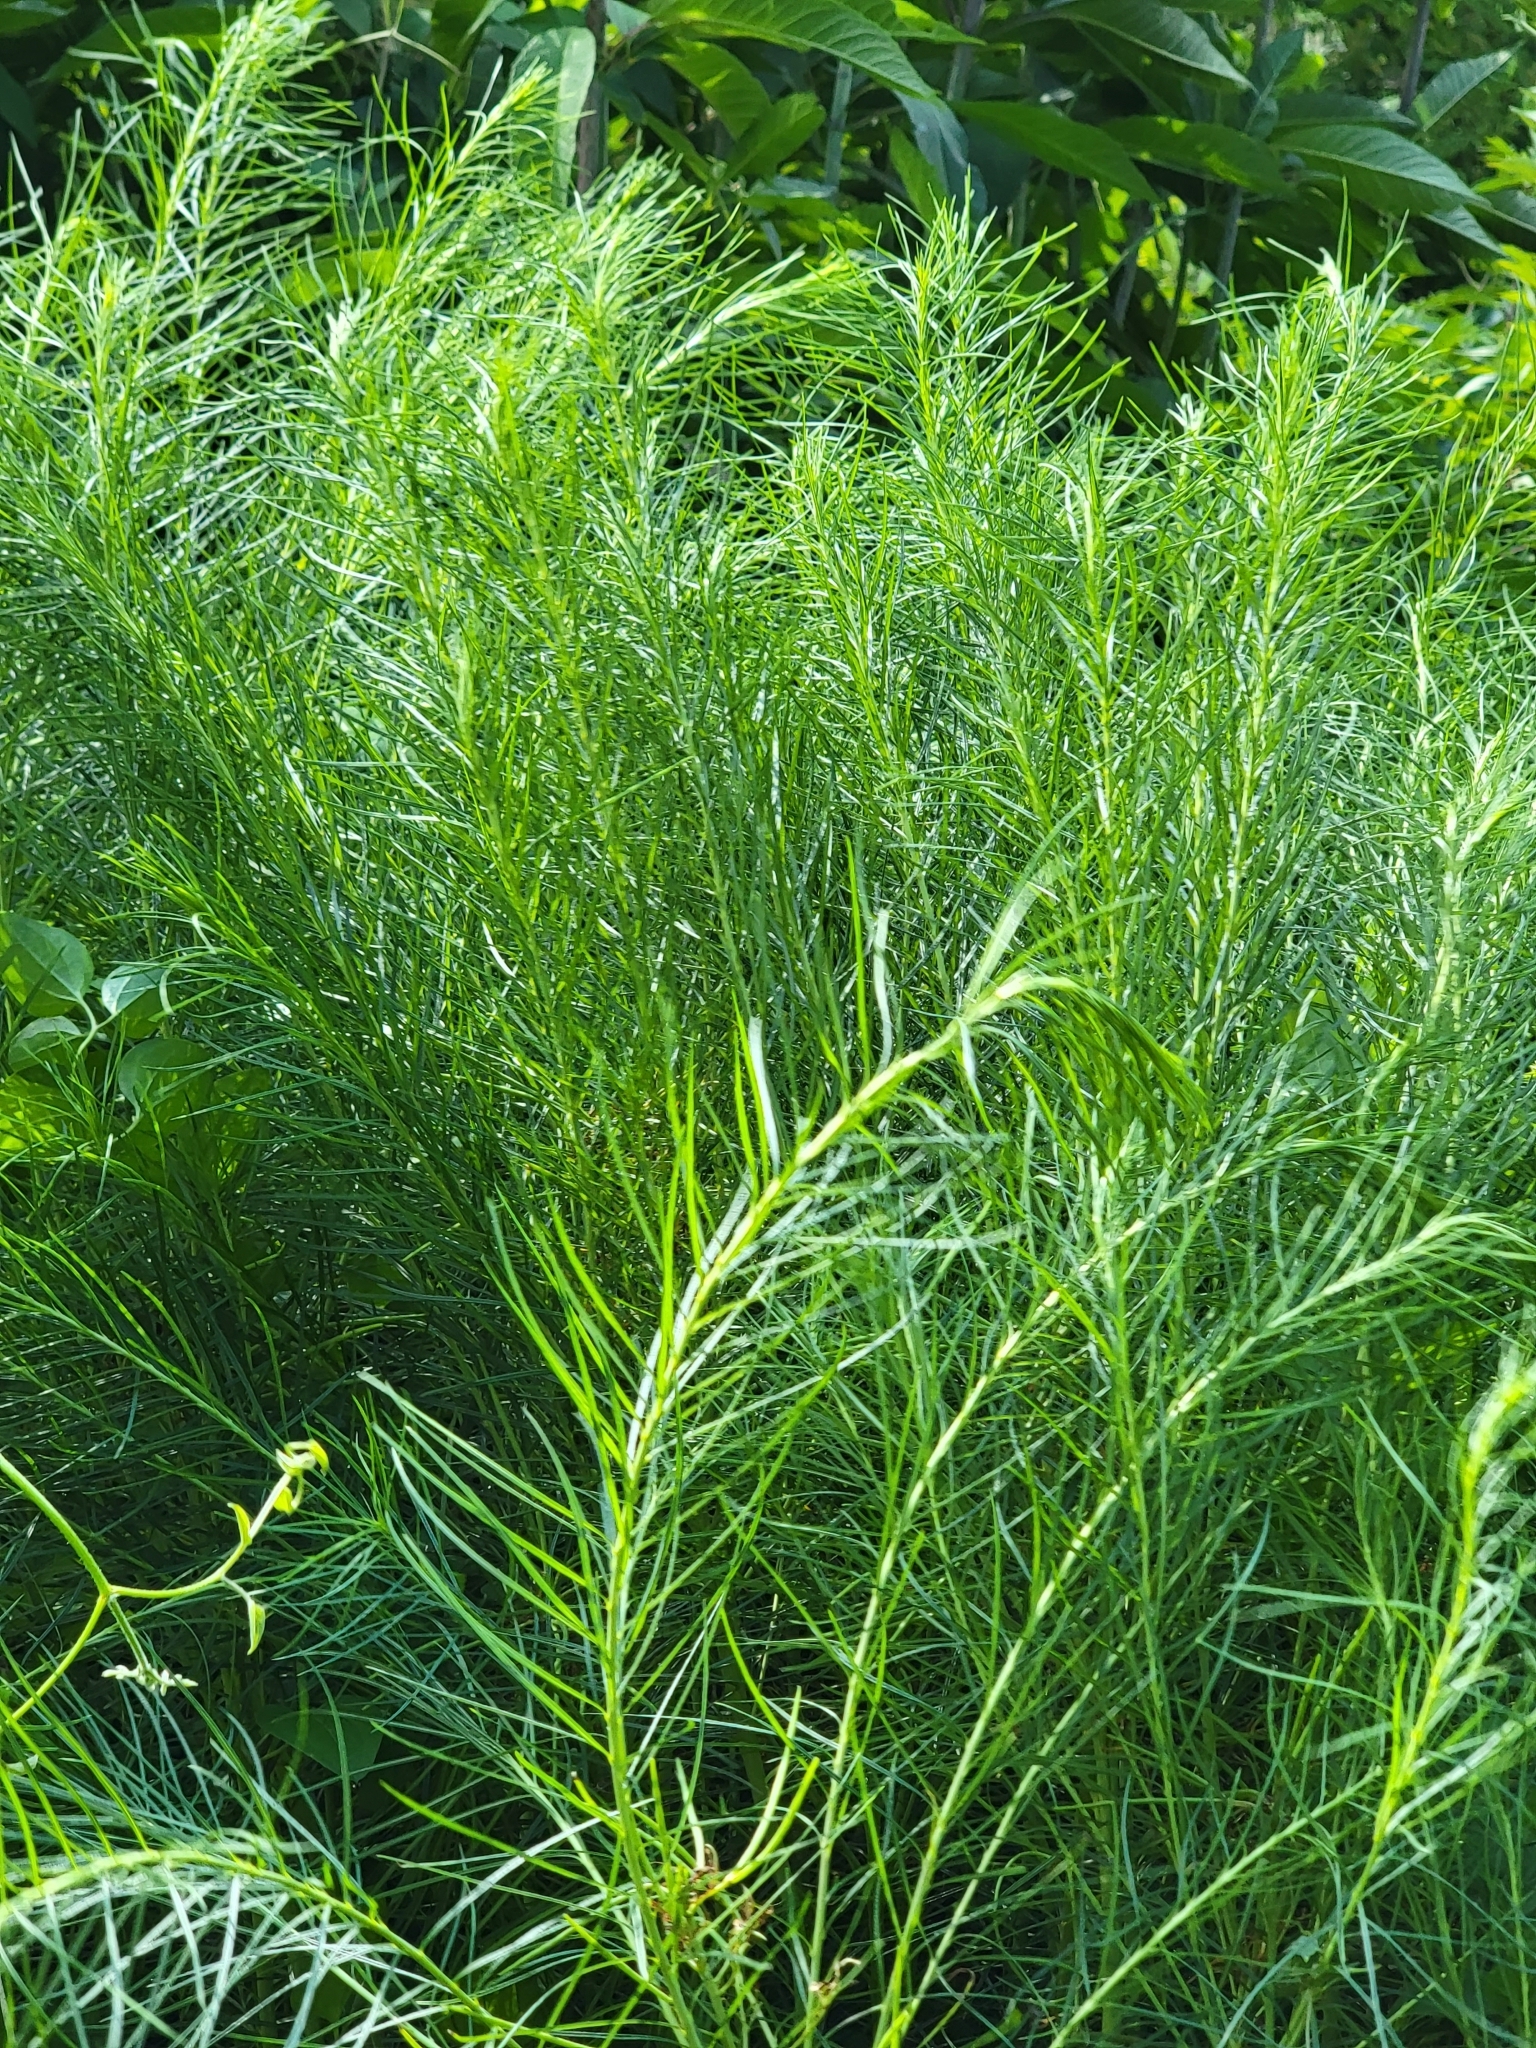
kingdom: Plantae
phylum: Tracheophyta
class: Magnoliopsida
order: Asterales
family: Asteraceae
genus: Eupatorium
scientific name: Eupatorium capillifolium
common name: Dog-fennel
